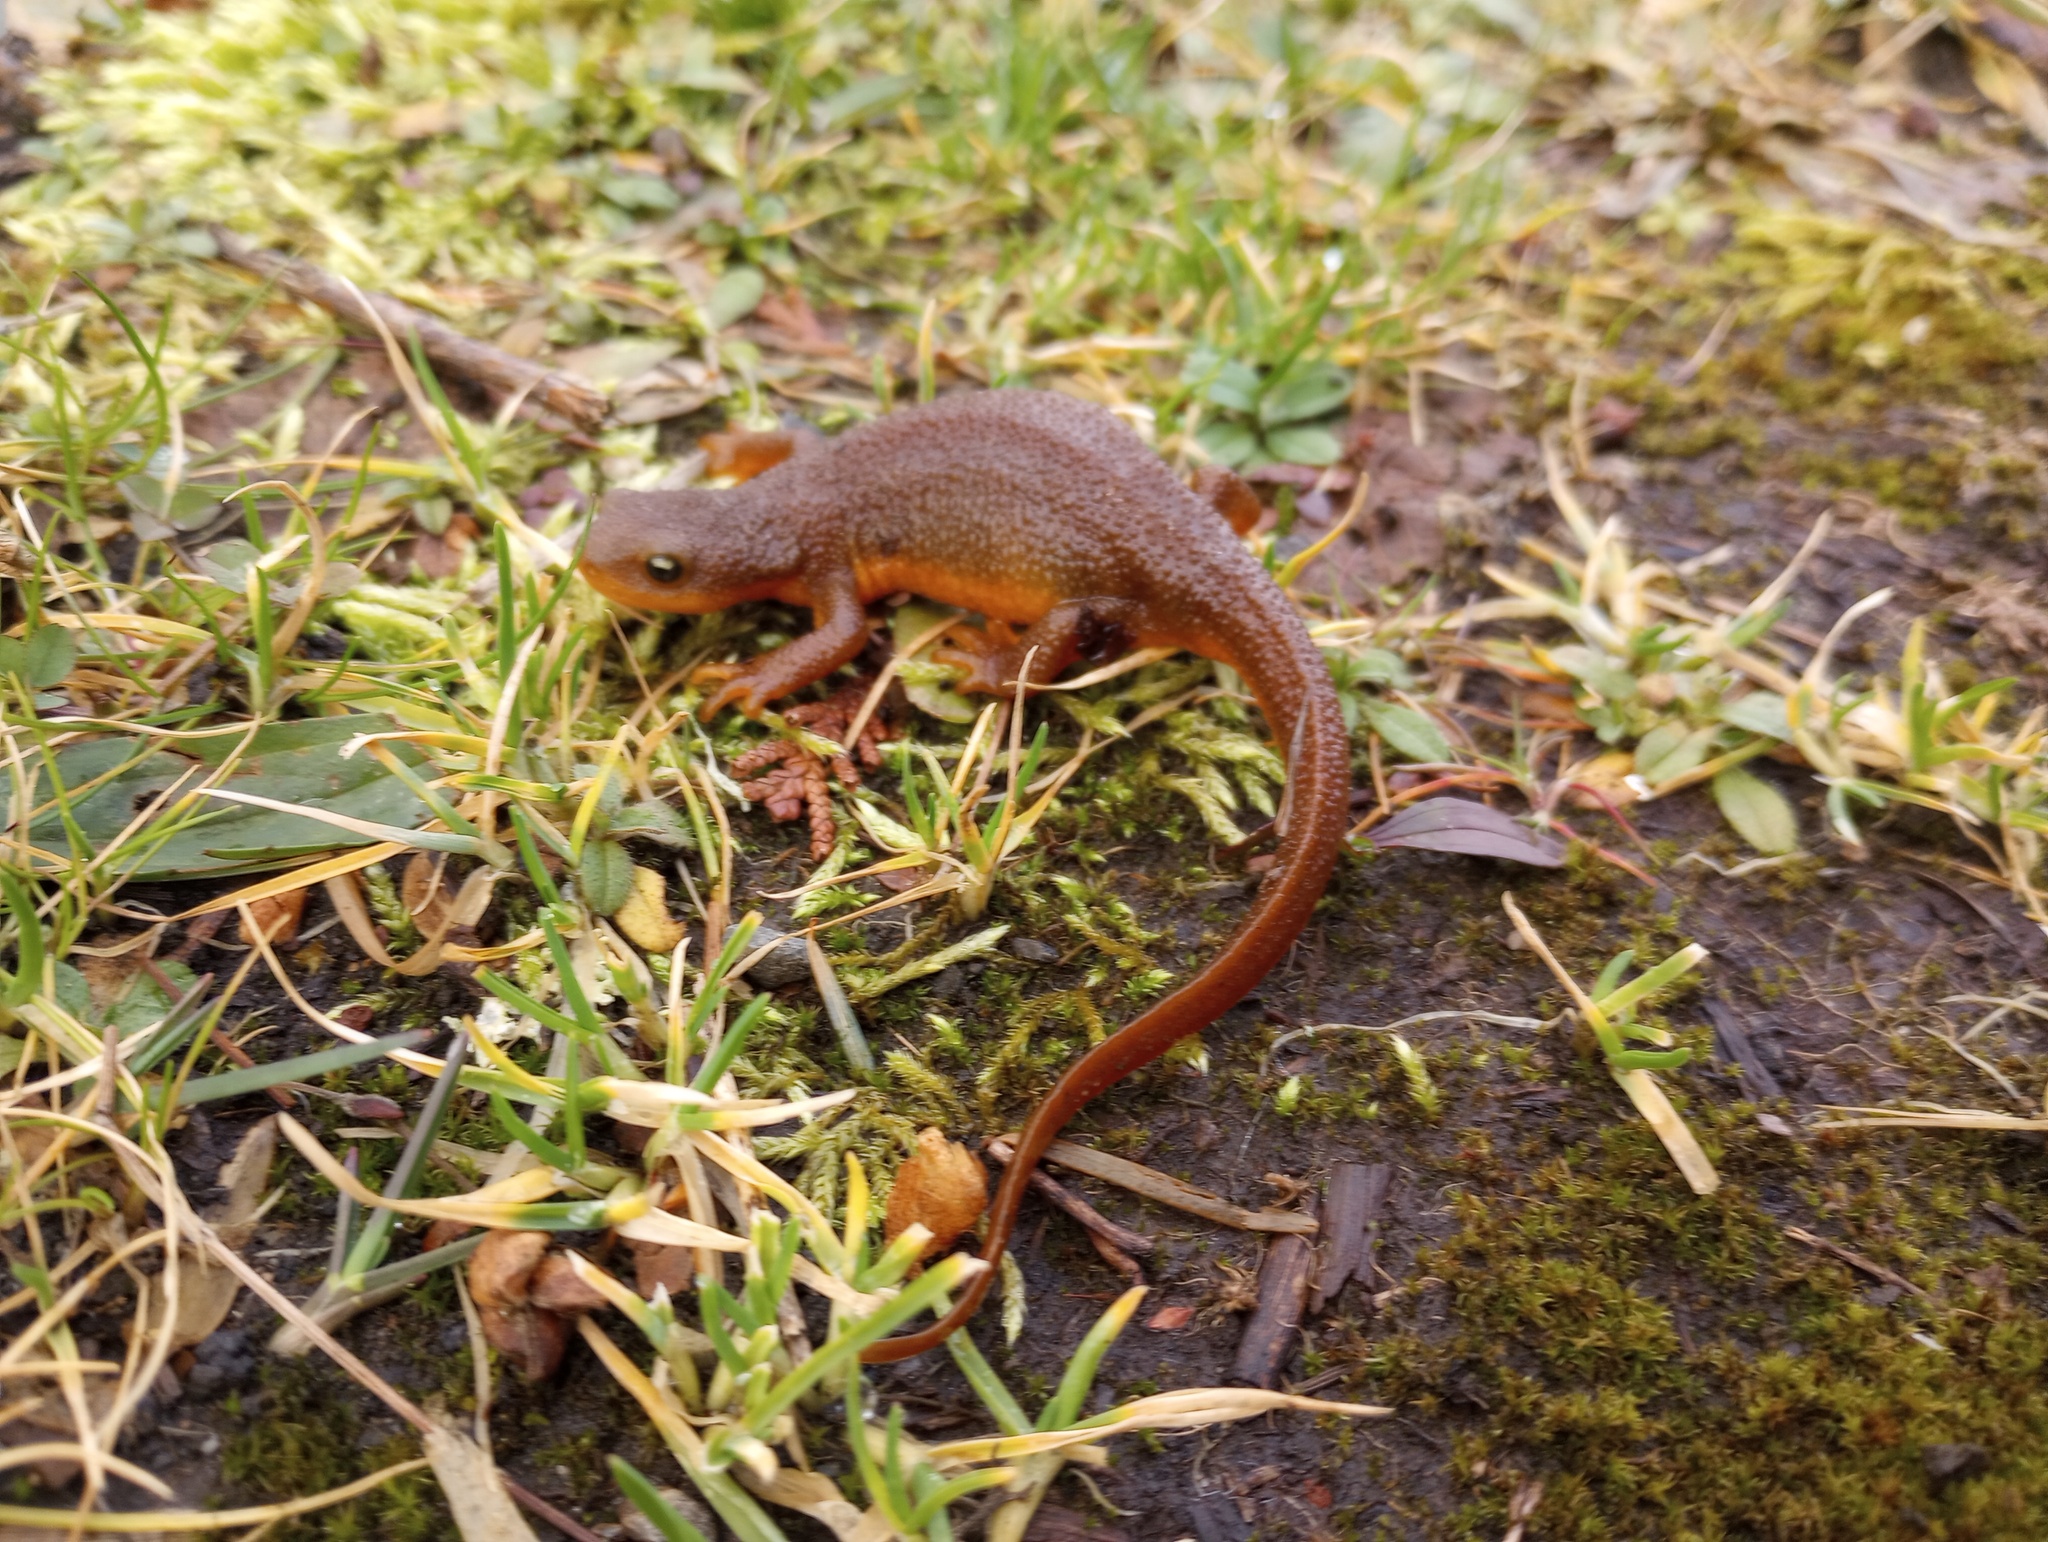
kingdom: Animalia
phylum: Chordata
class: Amphibia
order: Caudata
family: Salamandridae
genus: Taricha
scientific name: Taricha granulosa
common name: Roughskin newt
